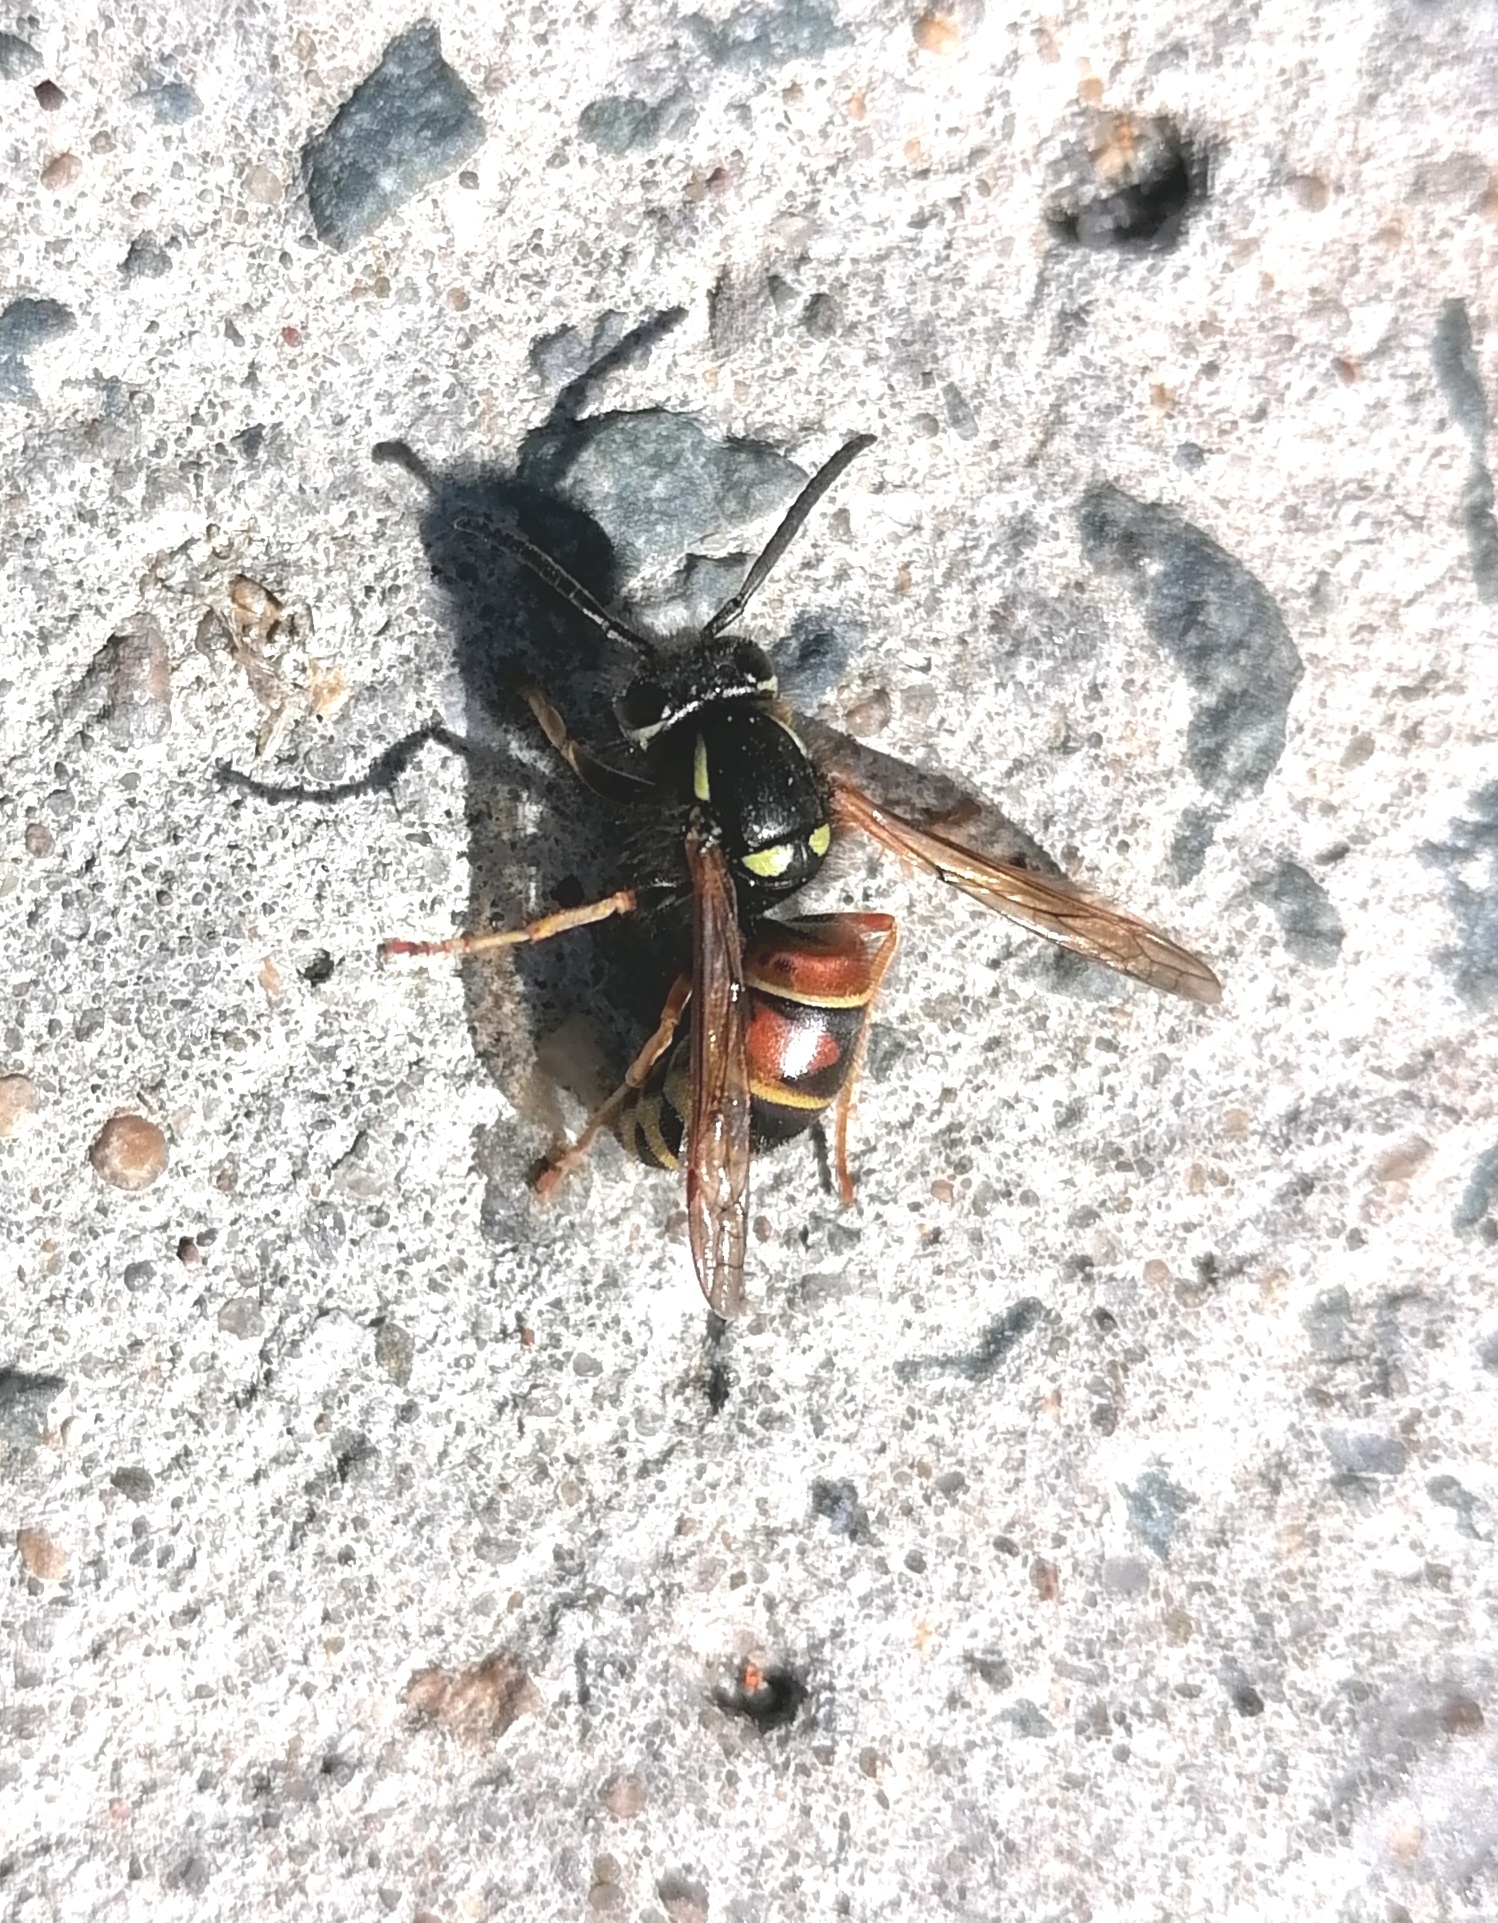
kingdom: Animalia
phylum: Arthropoda
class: Insecta
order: Hymenoptera
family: Vespidae
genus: Vespula
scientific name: Vespula rufa
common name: Red wasp
